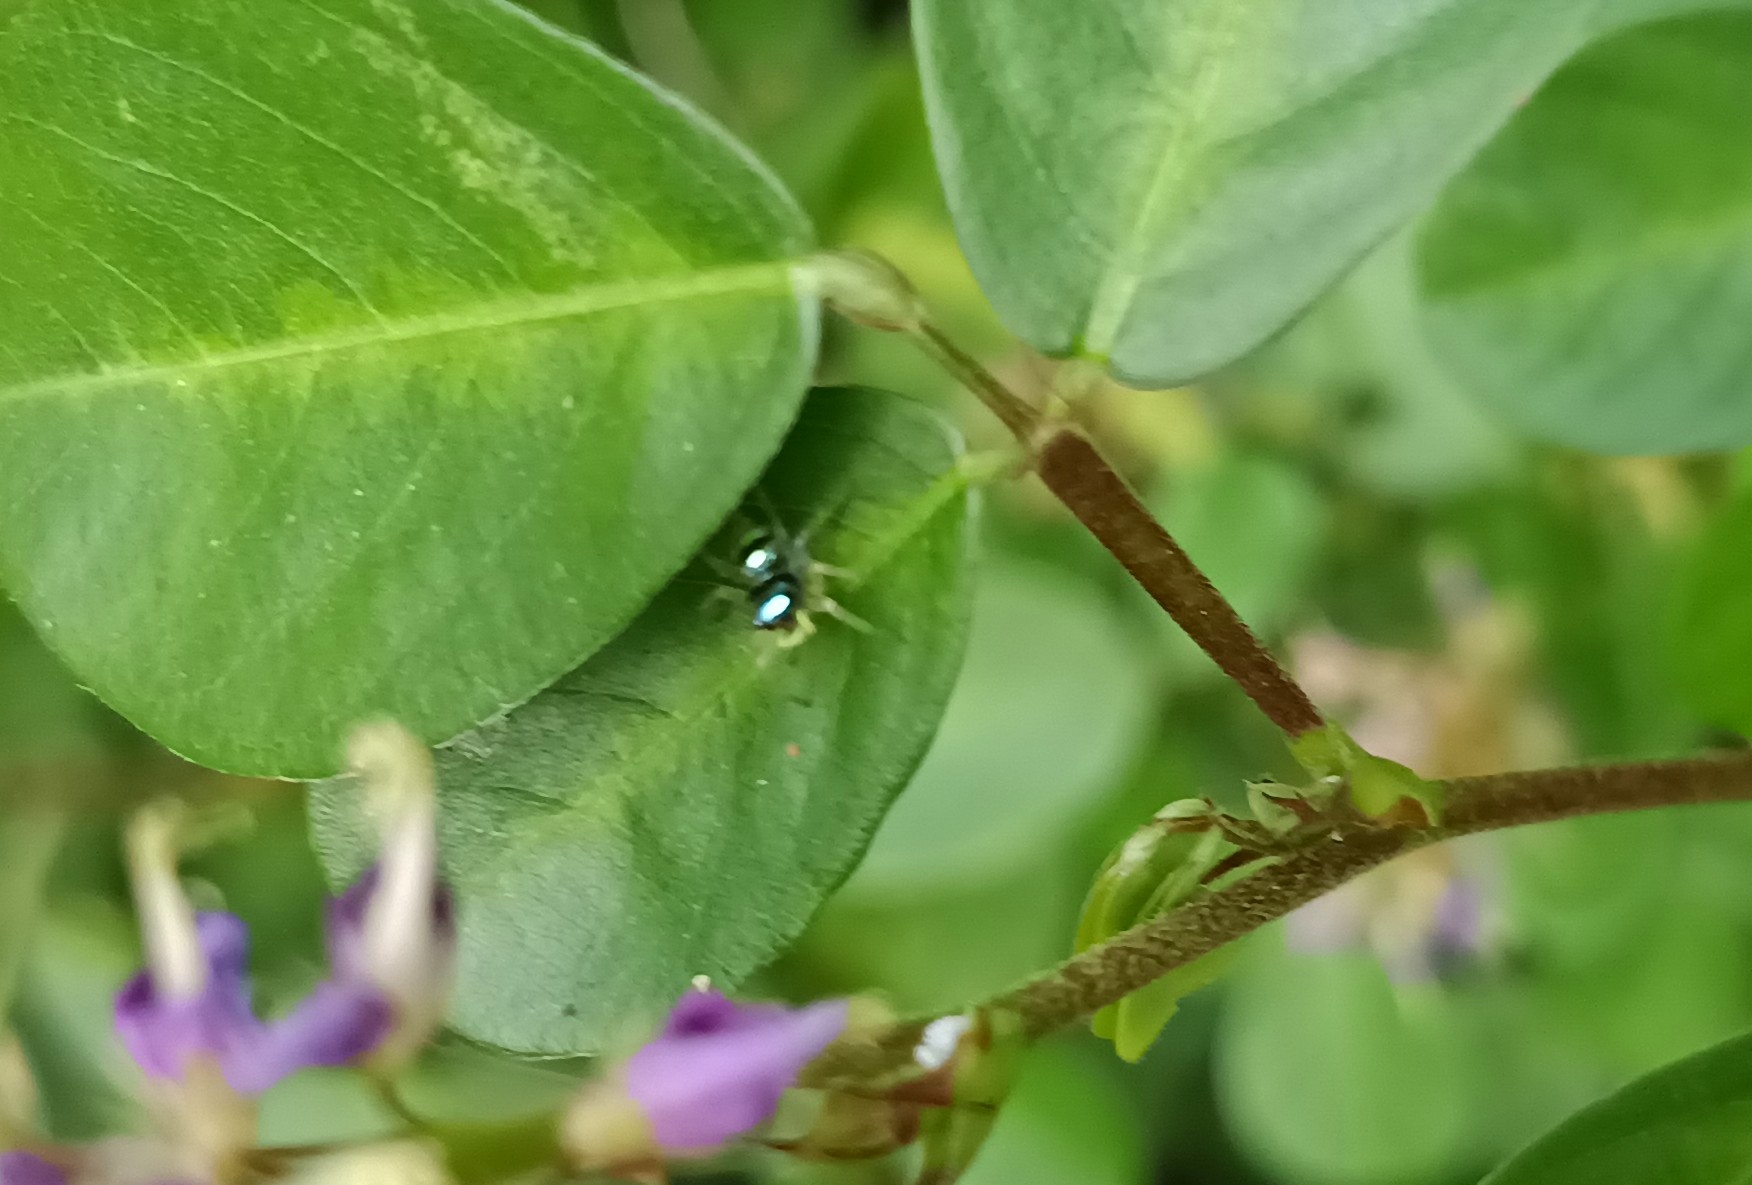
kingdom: Animalia
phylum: Arthropoda
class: Arachnida
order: Araneae
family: Salticidae
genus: Phintella
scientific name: Phintella vittata
